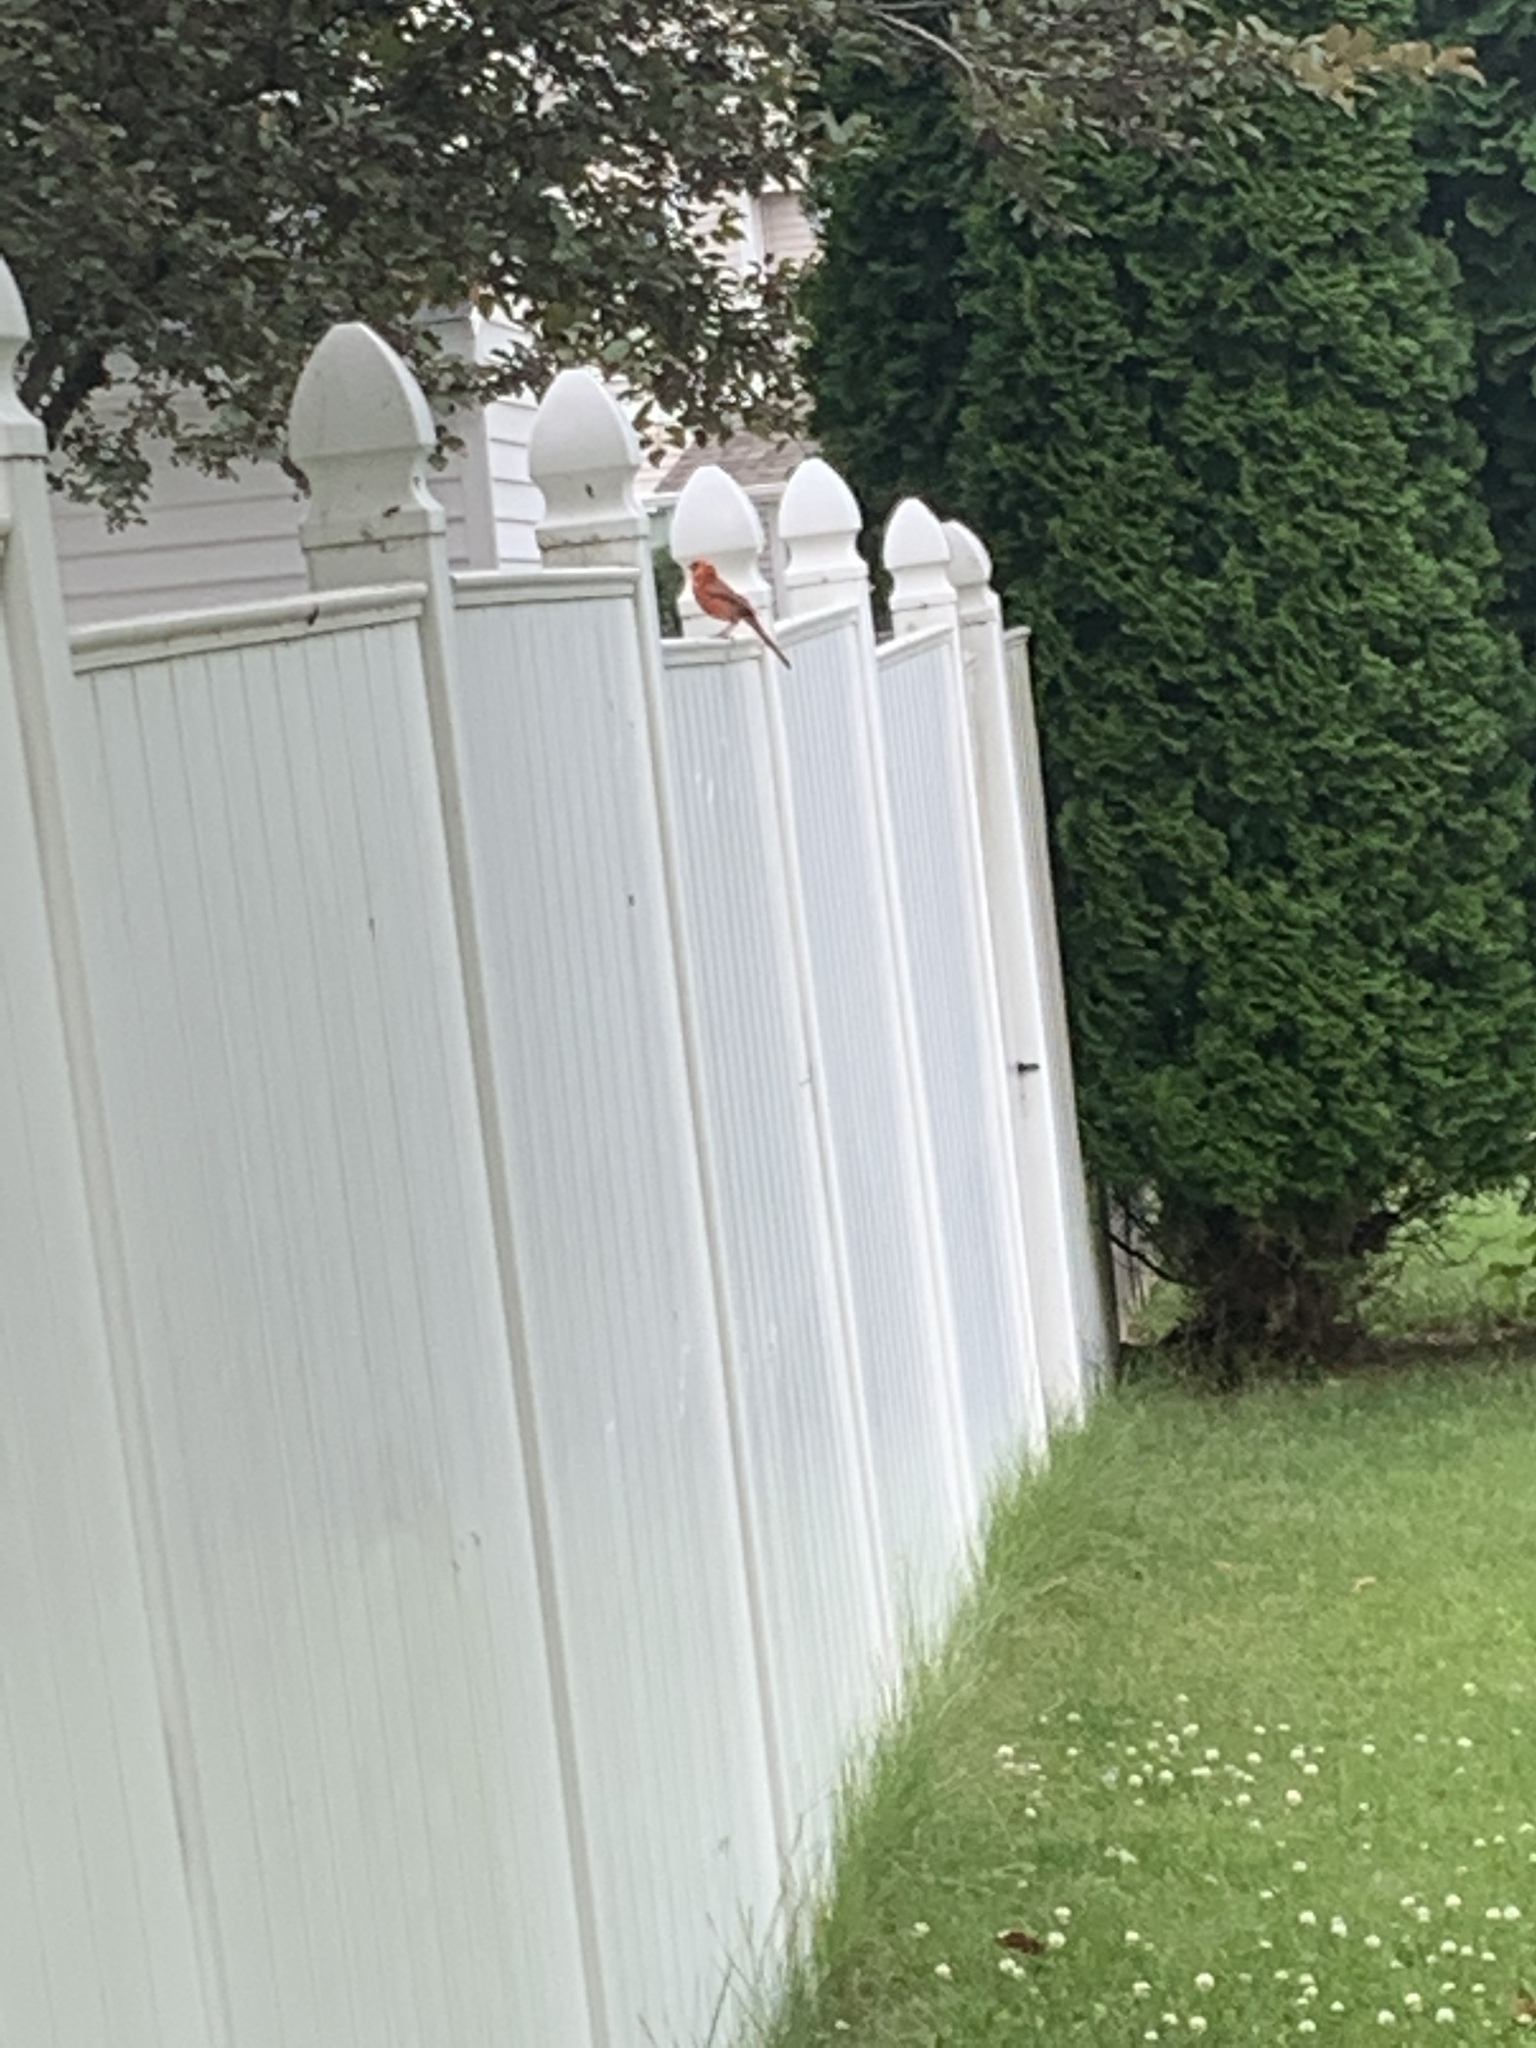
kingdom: Animalia
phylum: Chordata
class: Aves
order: Passeriformes
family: Cardinalidae
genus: Cardinalis
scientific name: Cardinalis cardinalis
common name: Northern cardinal
